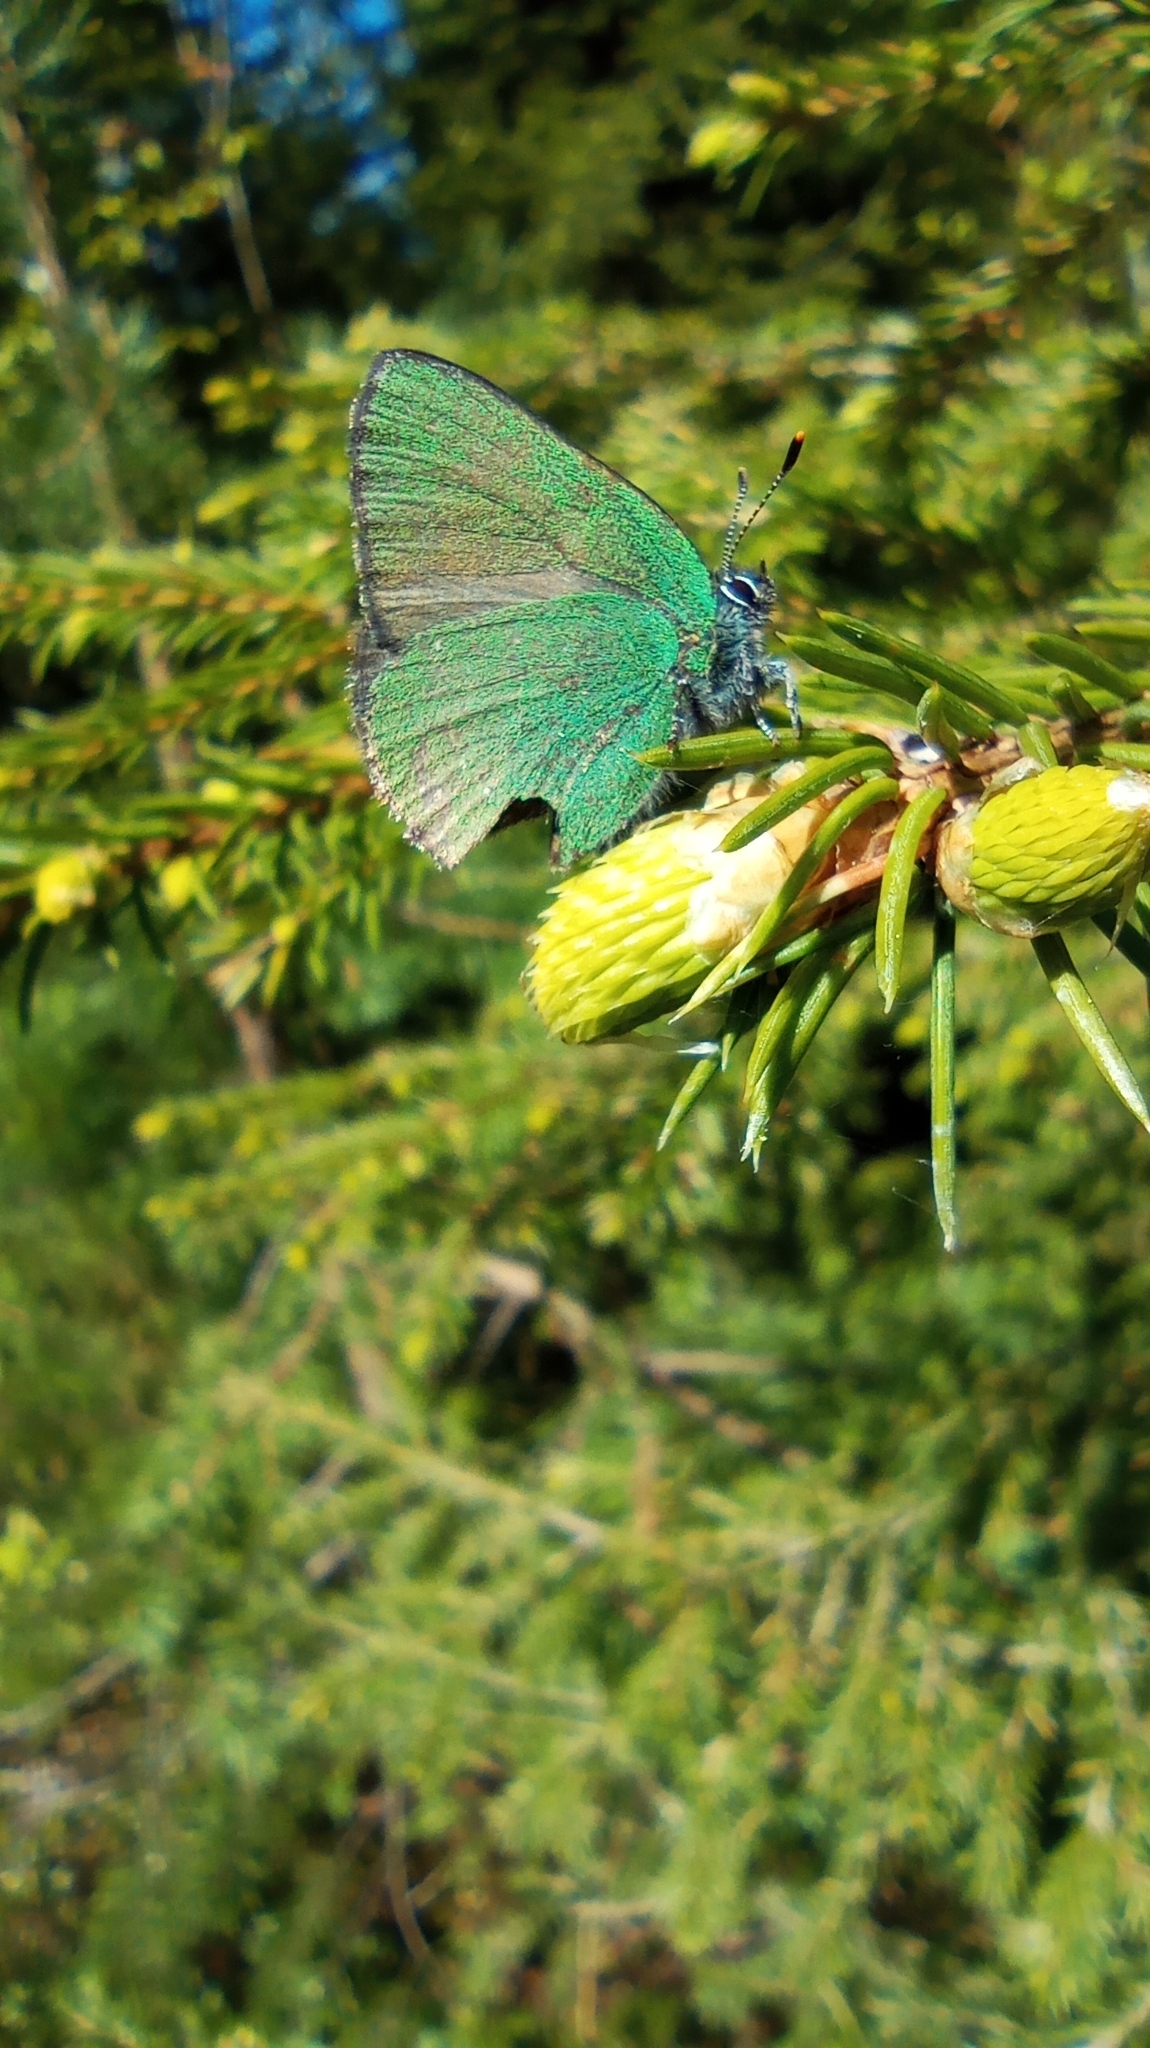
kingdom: Animalia
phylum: Arthropoda
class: Insecta
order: Lepidoptera
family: Lycaenidae
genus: Callophrys
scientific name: Callophrys rubi
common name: Green hairstreak
